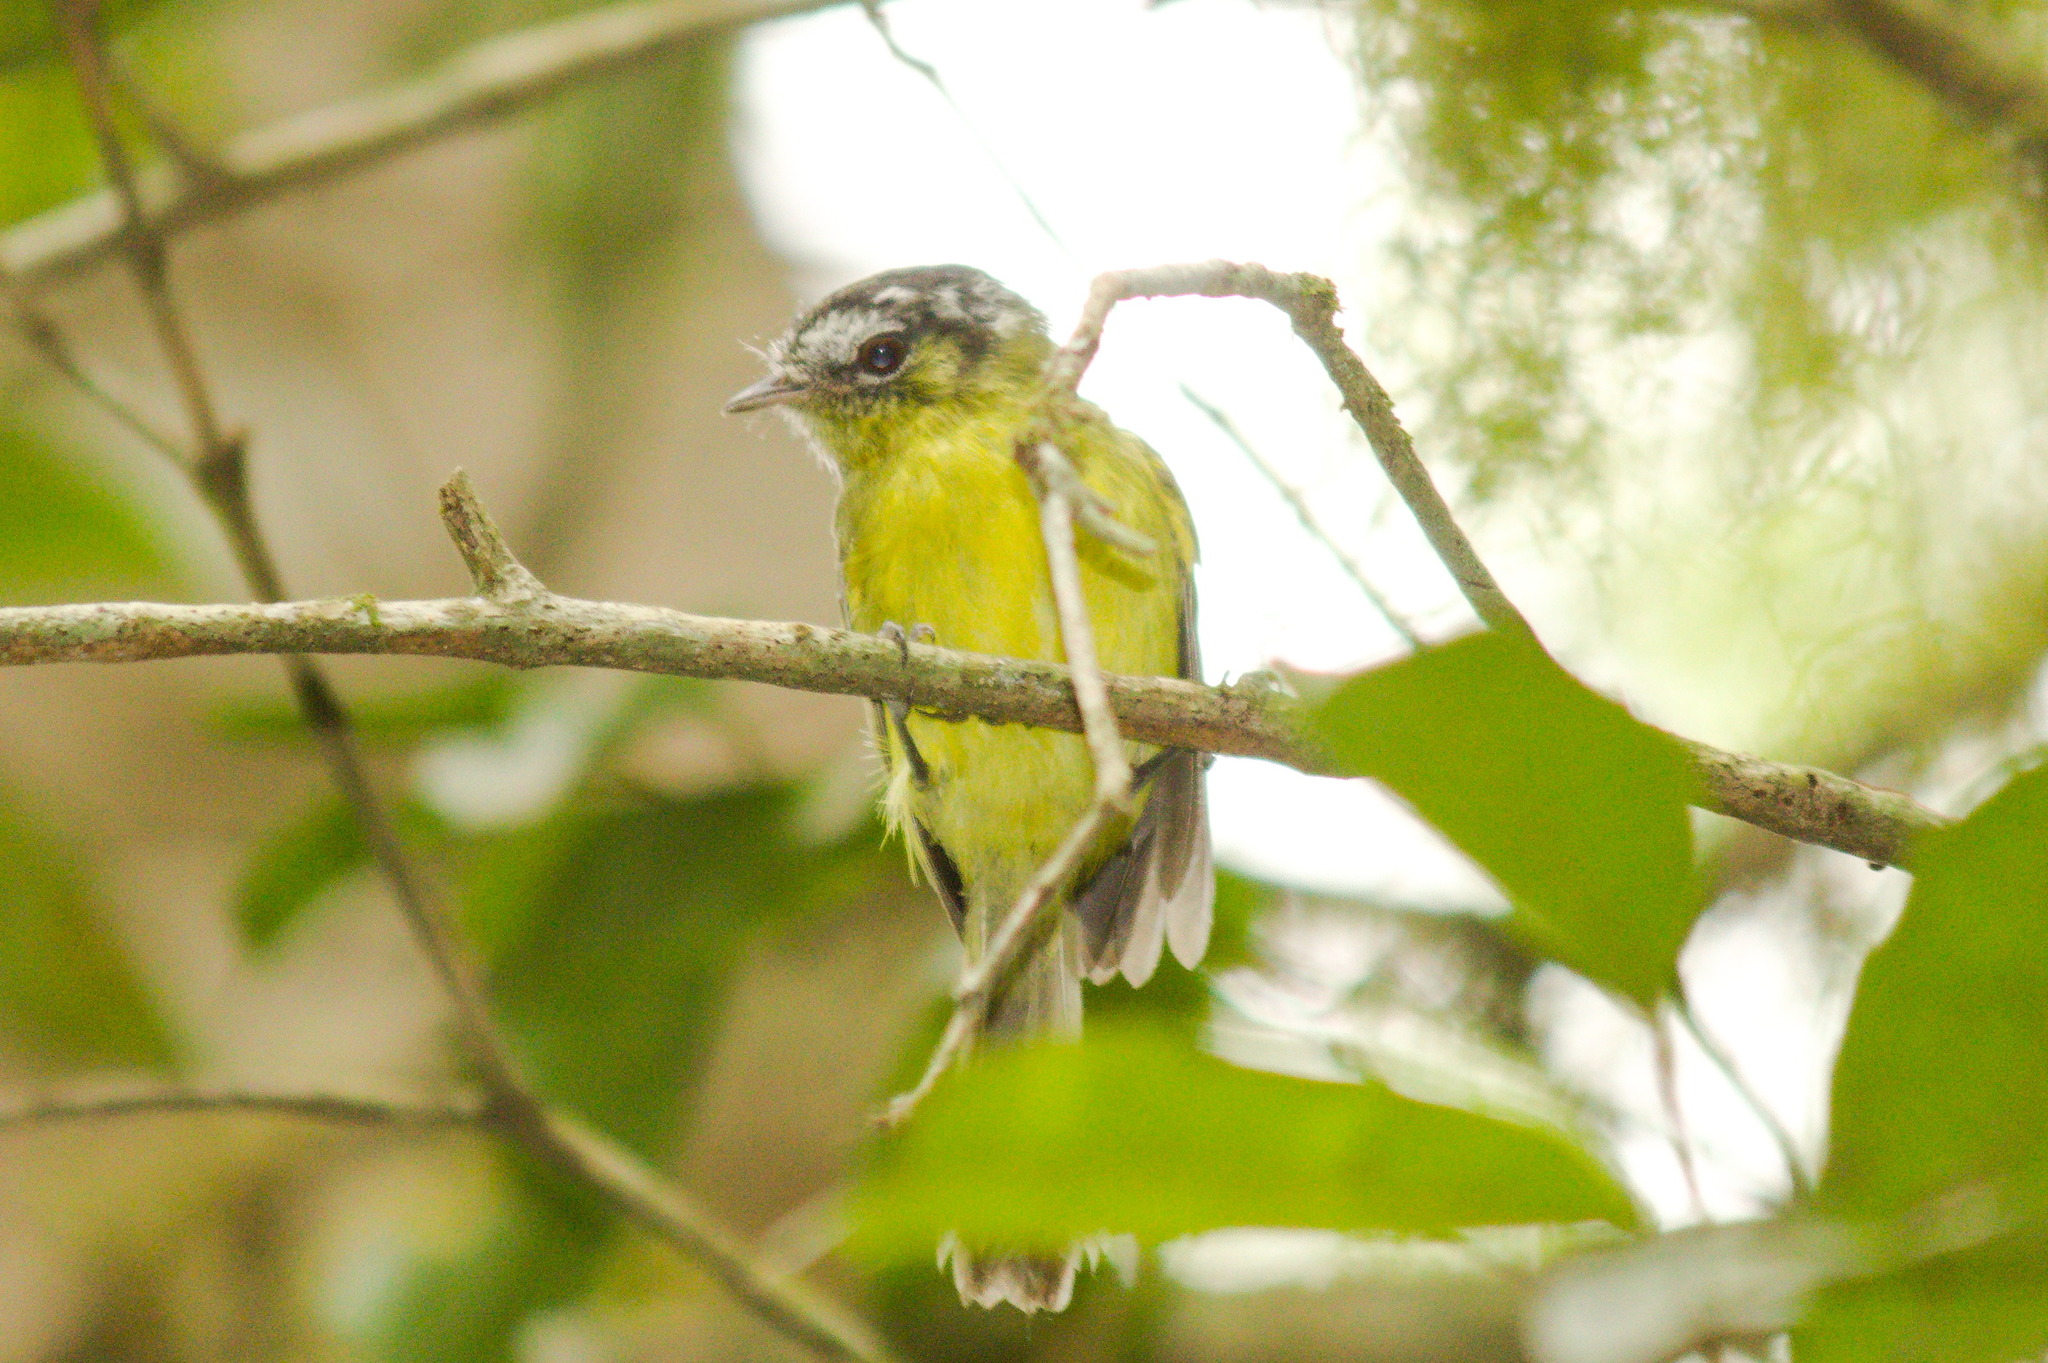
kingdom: Animalia
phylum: Chordata
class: Aves
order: Passeriformes
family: Tyrannidae
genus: Phylloscartes
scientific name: Phylloscartes eximius
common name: Southern bristle-tyrant
